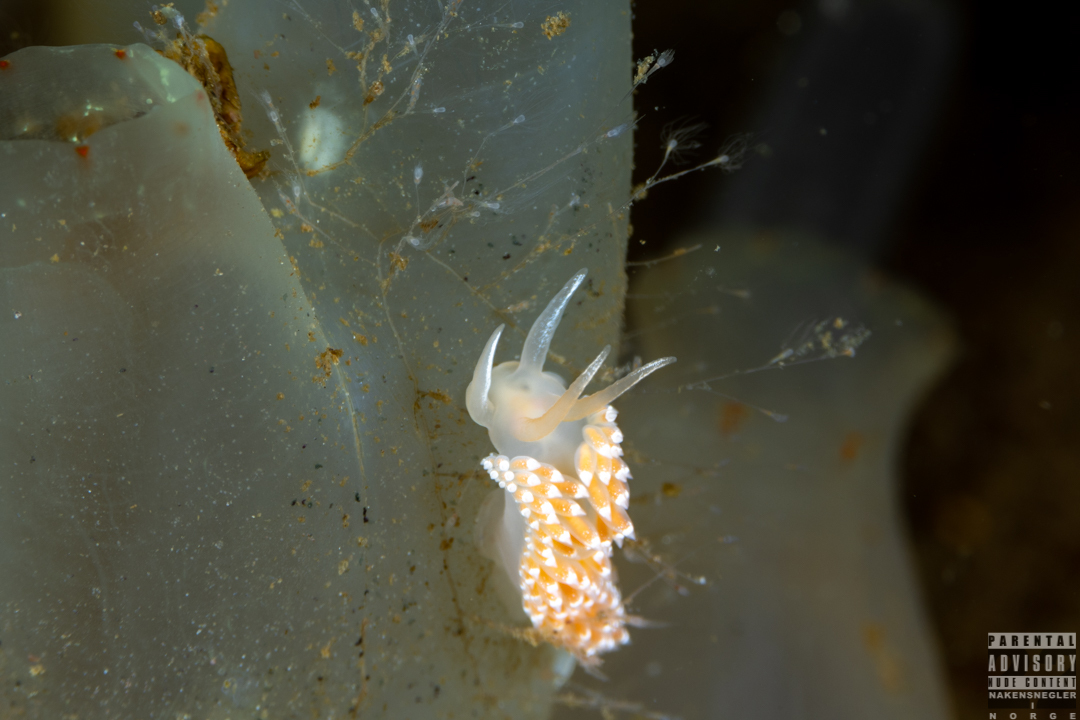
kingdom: Animalia
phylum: Mollusca
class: Gastropoda
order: Nudibranchia
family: Coryphellidae
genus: Coryphella
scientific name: Coryphella verrucosa
